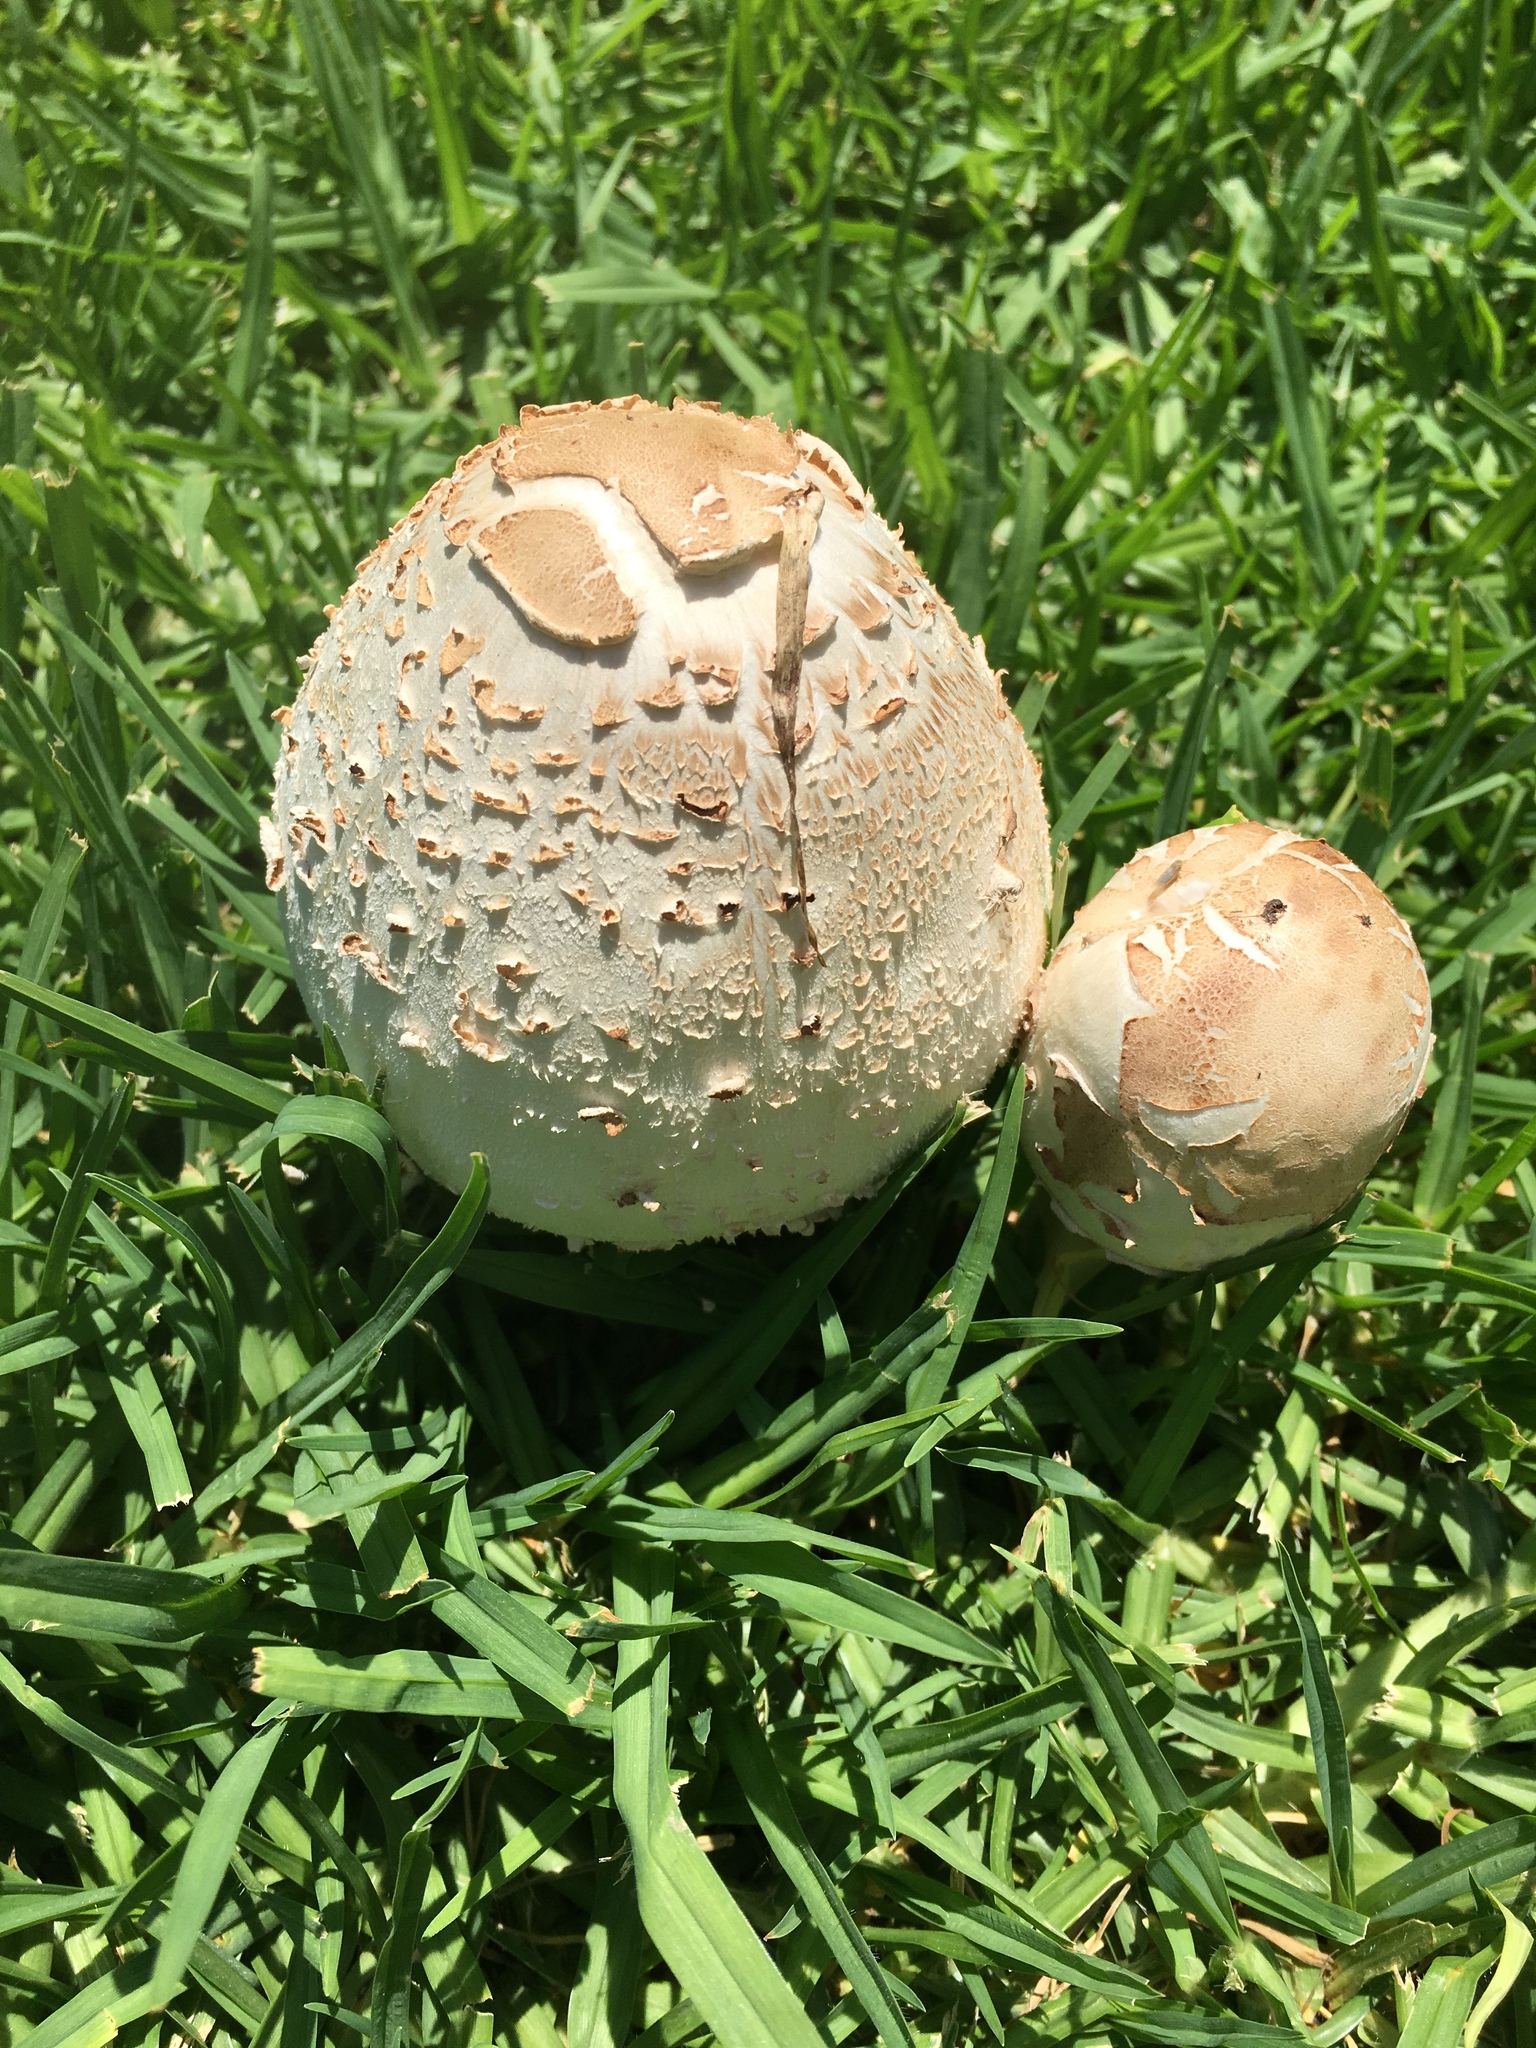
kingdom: Fungi
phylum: Basidiomycota
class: Agaricomycetes
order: Agaricales
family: Agaricaceae
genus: Chlorophyllum
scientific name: Chlorophyllum molybdites
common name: False parasol
